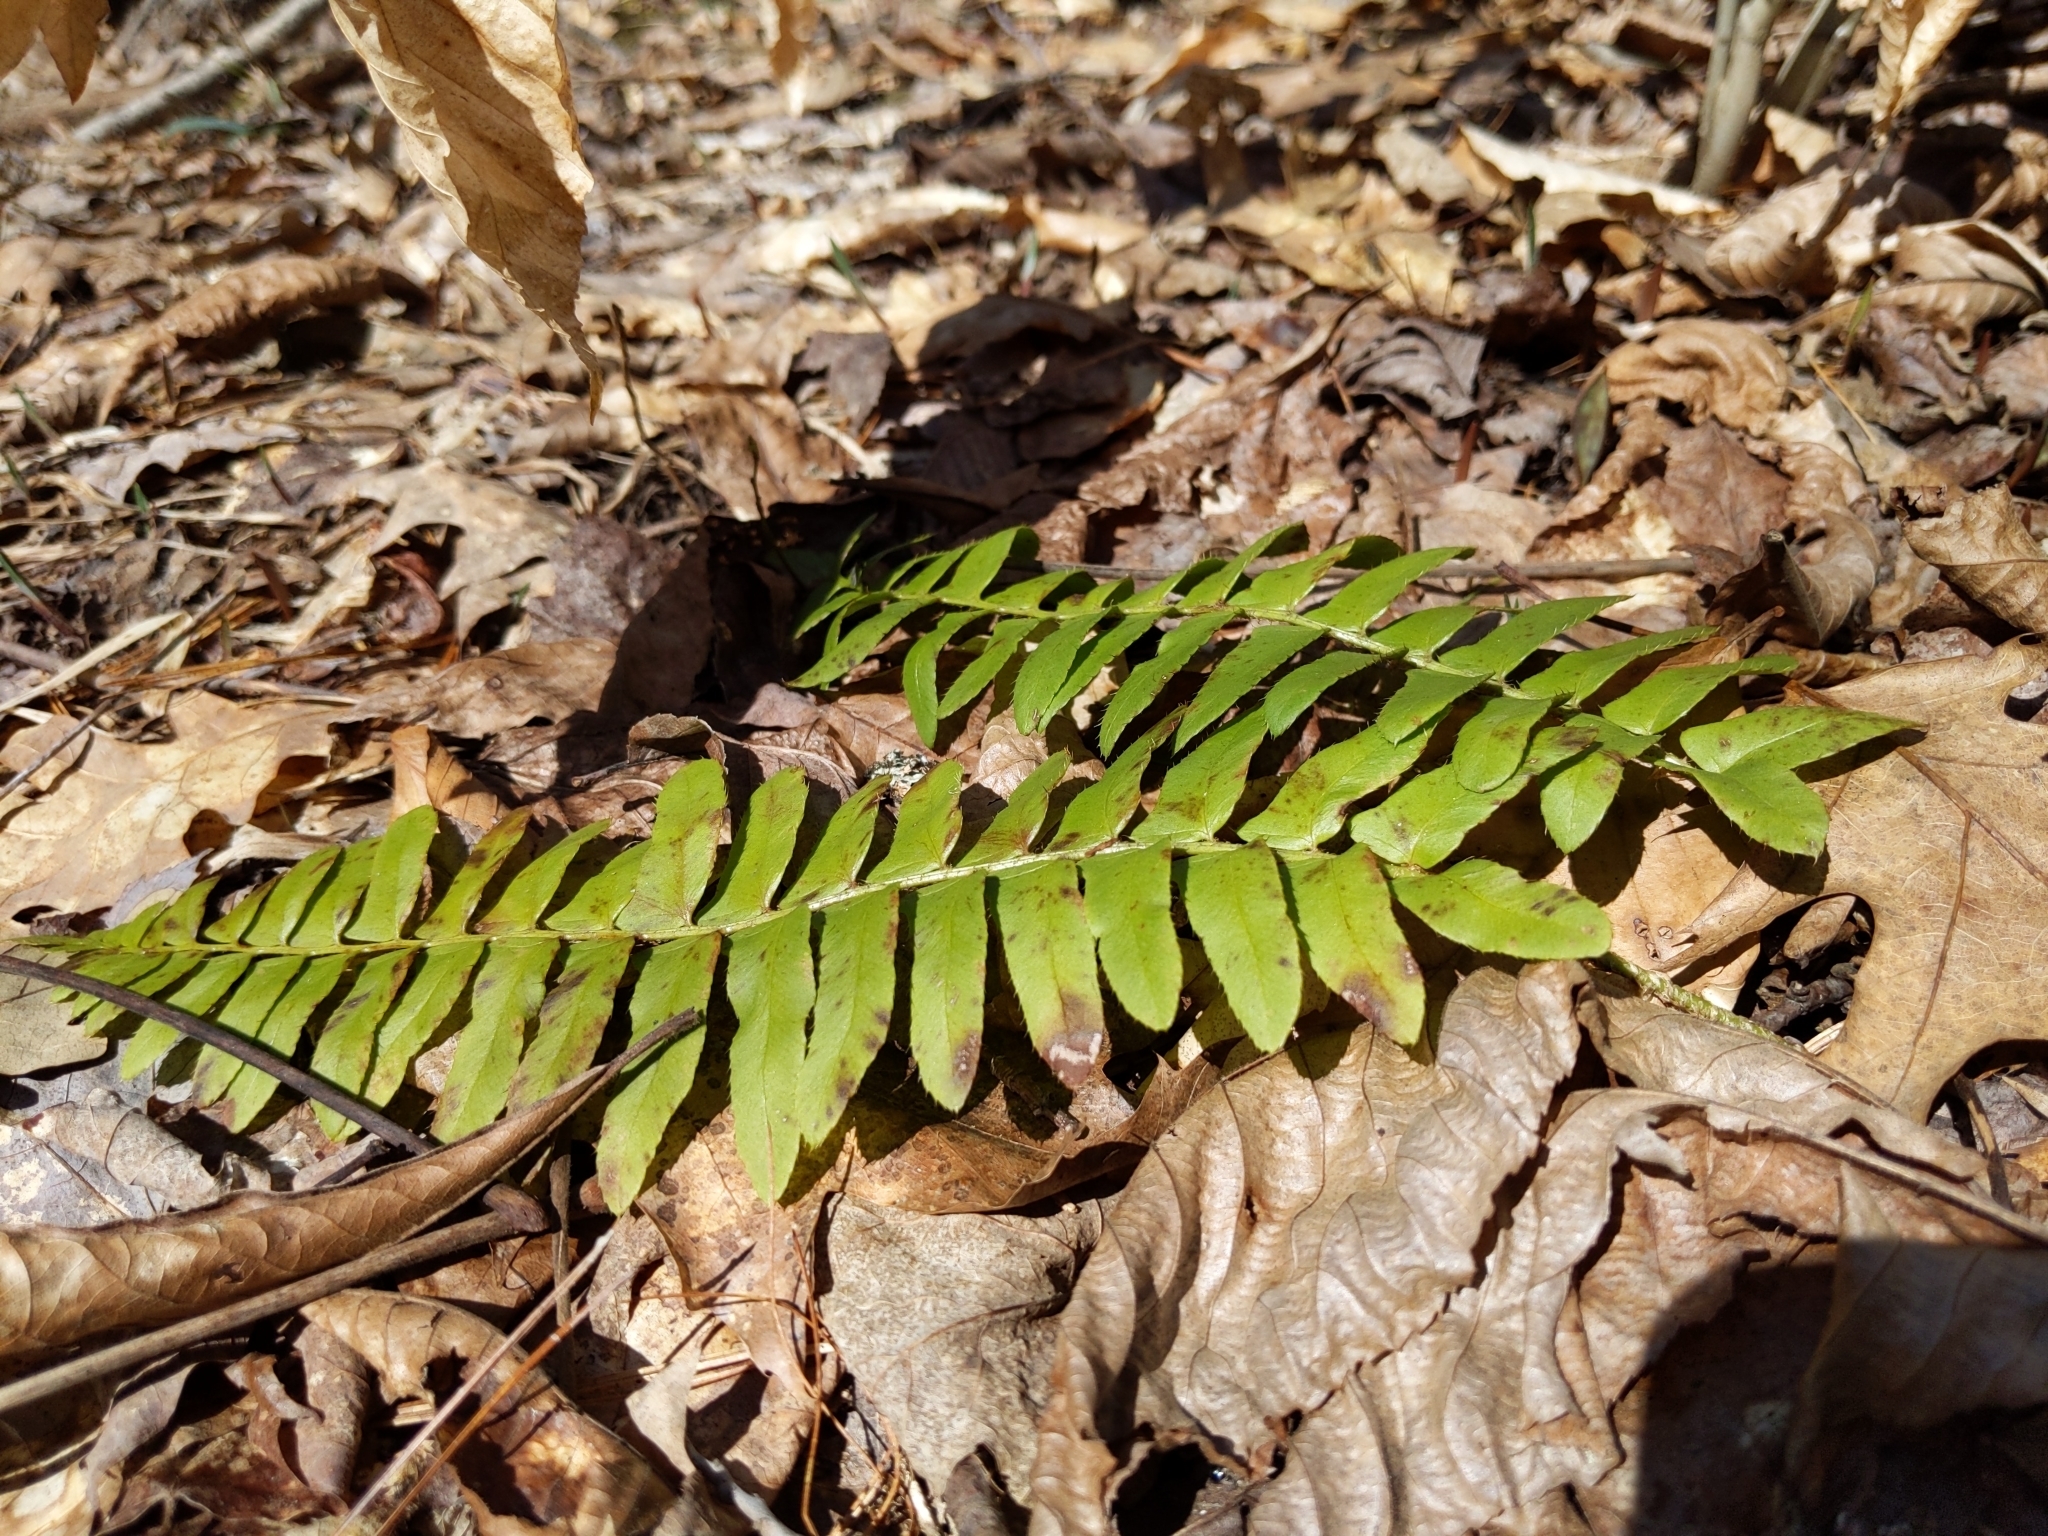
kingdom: Plantae
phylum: Tracheophyta
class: Polypodiopsida
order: Polypodiales
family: Dryopteridaceae
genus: Polystichum
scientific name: Polystichum acrostichoides
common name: Christmas fern
